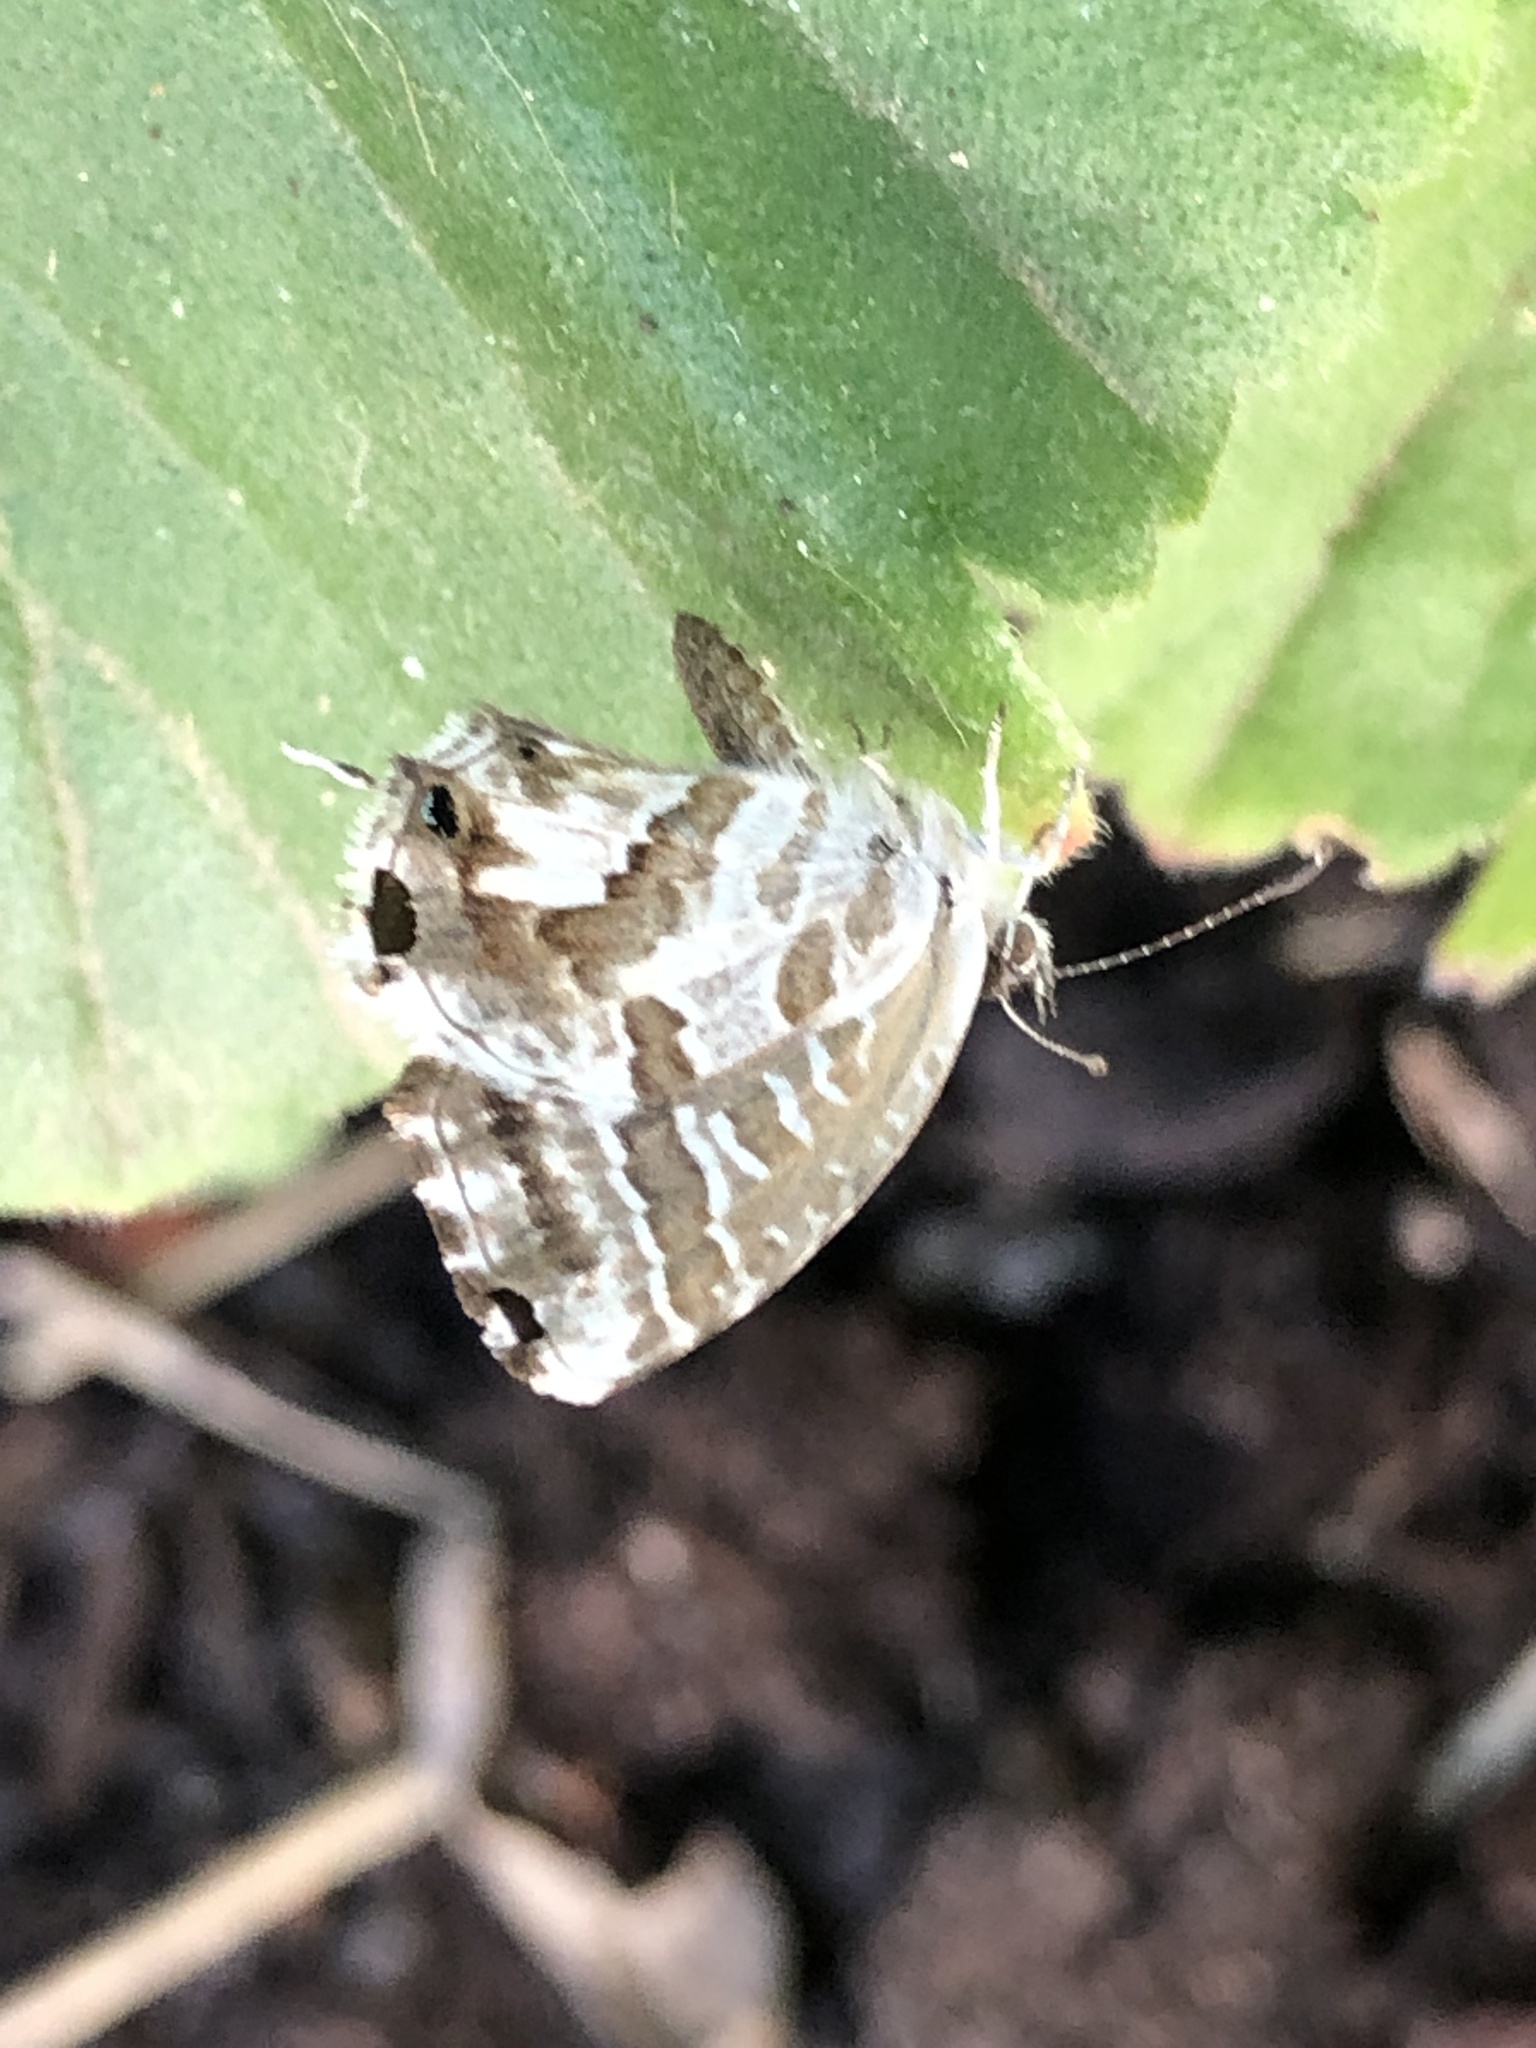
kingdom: Animalia
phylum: Arthropoda
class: Insecta
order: Lepidoptera
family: Lycaenidae
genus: Cacyreus
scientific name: Cacyreus marshalli
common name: Geranium bronze
